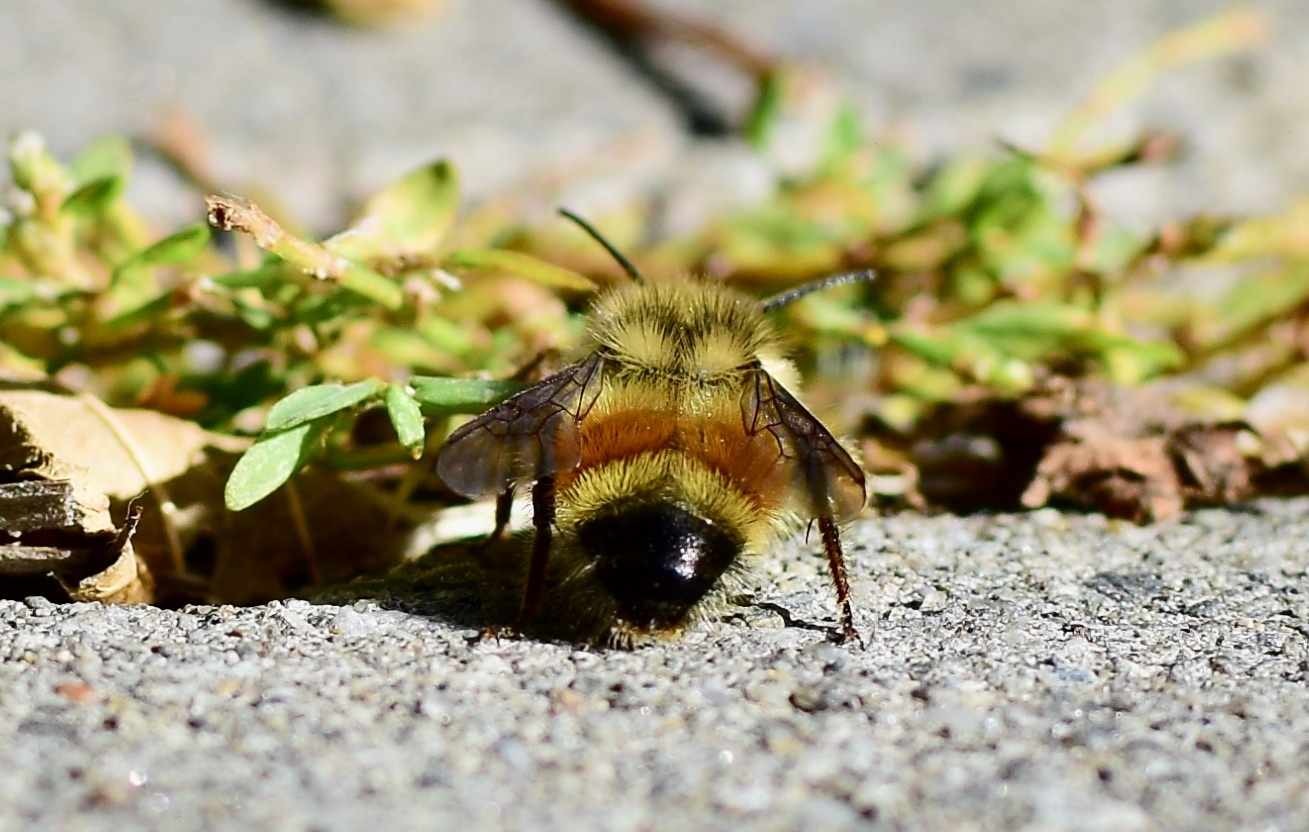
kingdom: Animalia
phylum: Arthropoda
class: Insecta
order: Hymenoptera
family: Apidae
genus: Bombus
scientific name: Bombus ternarius
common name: Tri-colored bumble bee
